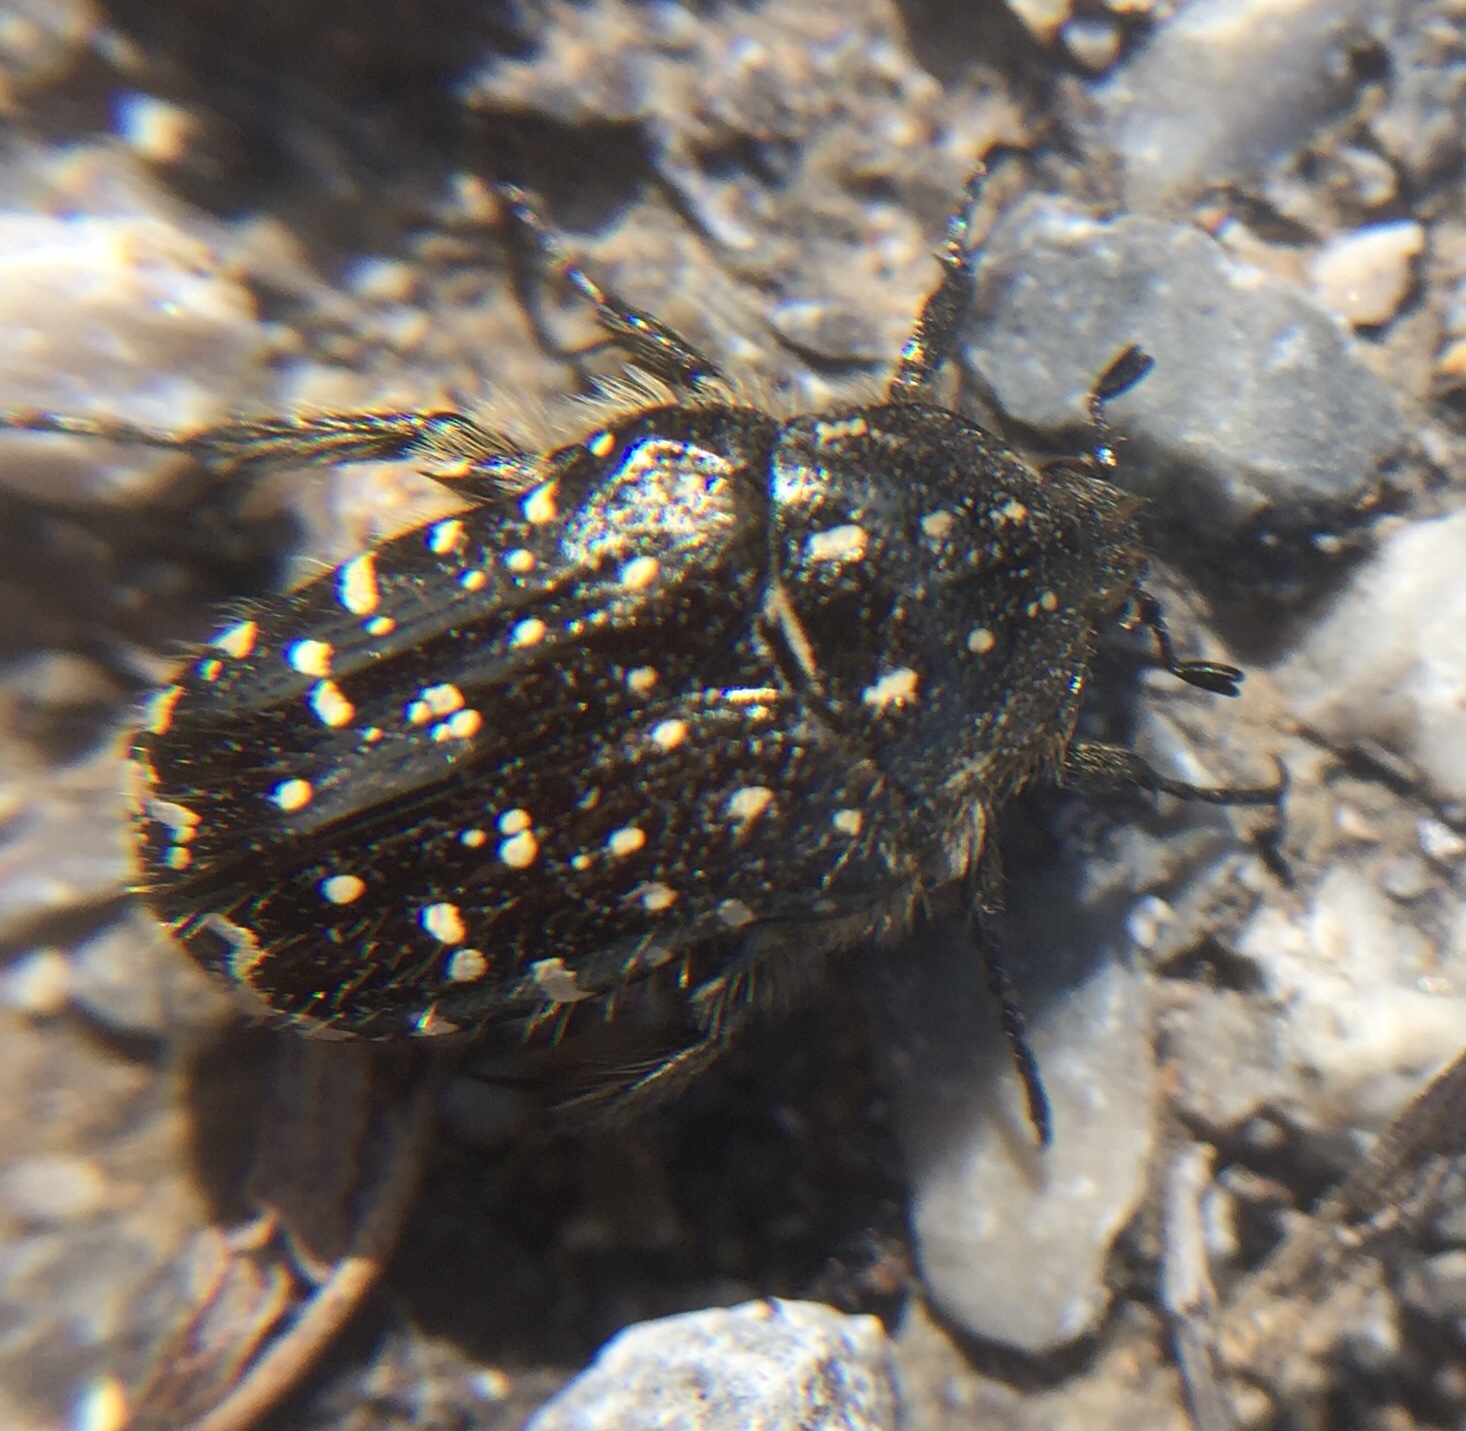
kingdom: Animalia
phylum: Arthropoda
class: Insecta
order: Coleoptera
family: Scarabaeidae
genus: Oxythyrea
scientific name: Oxythyrea funesta
